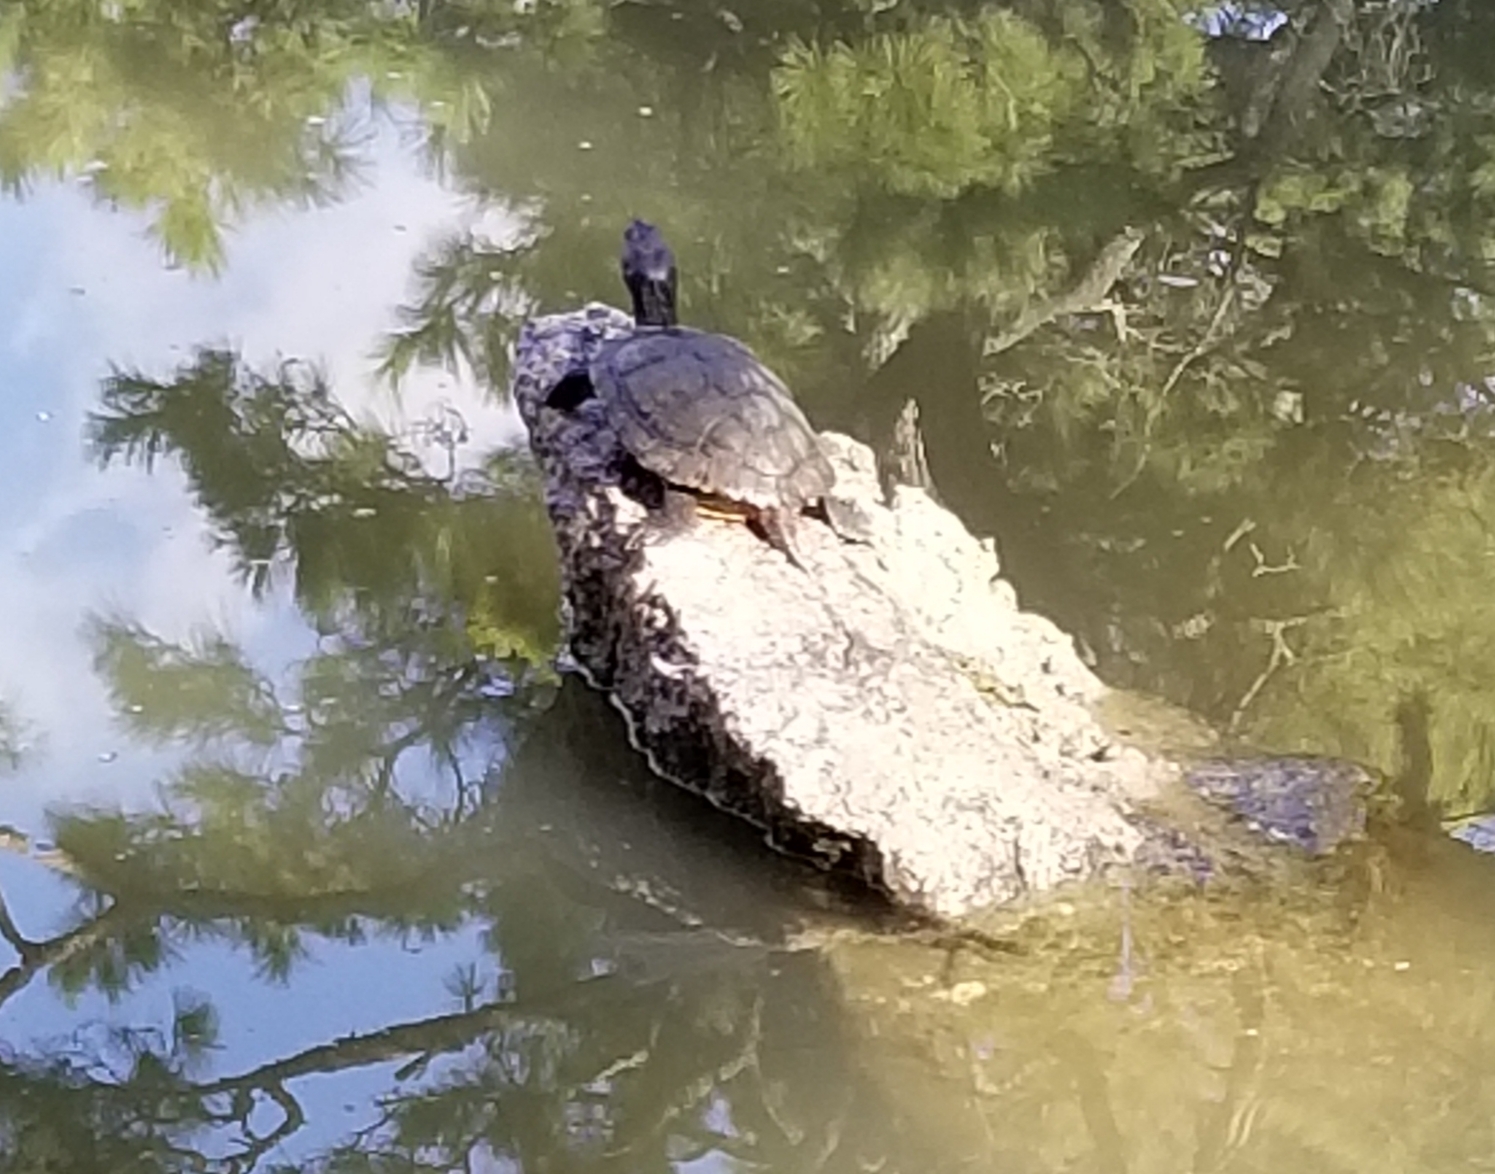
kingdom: Animalia
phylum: Chordata
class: Testudines
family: Emydidae
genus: Trachemys
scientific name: Trachemys scripta
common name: Slider
